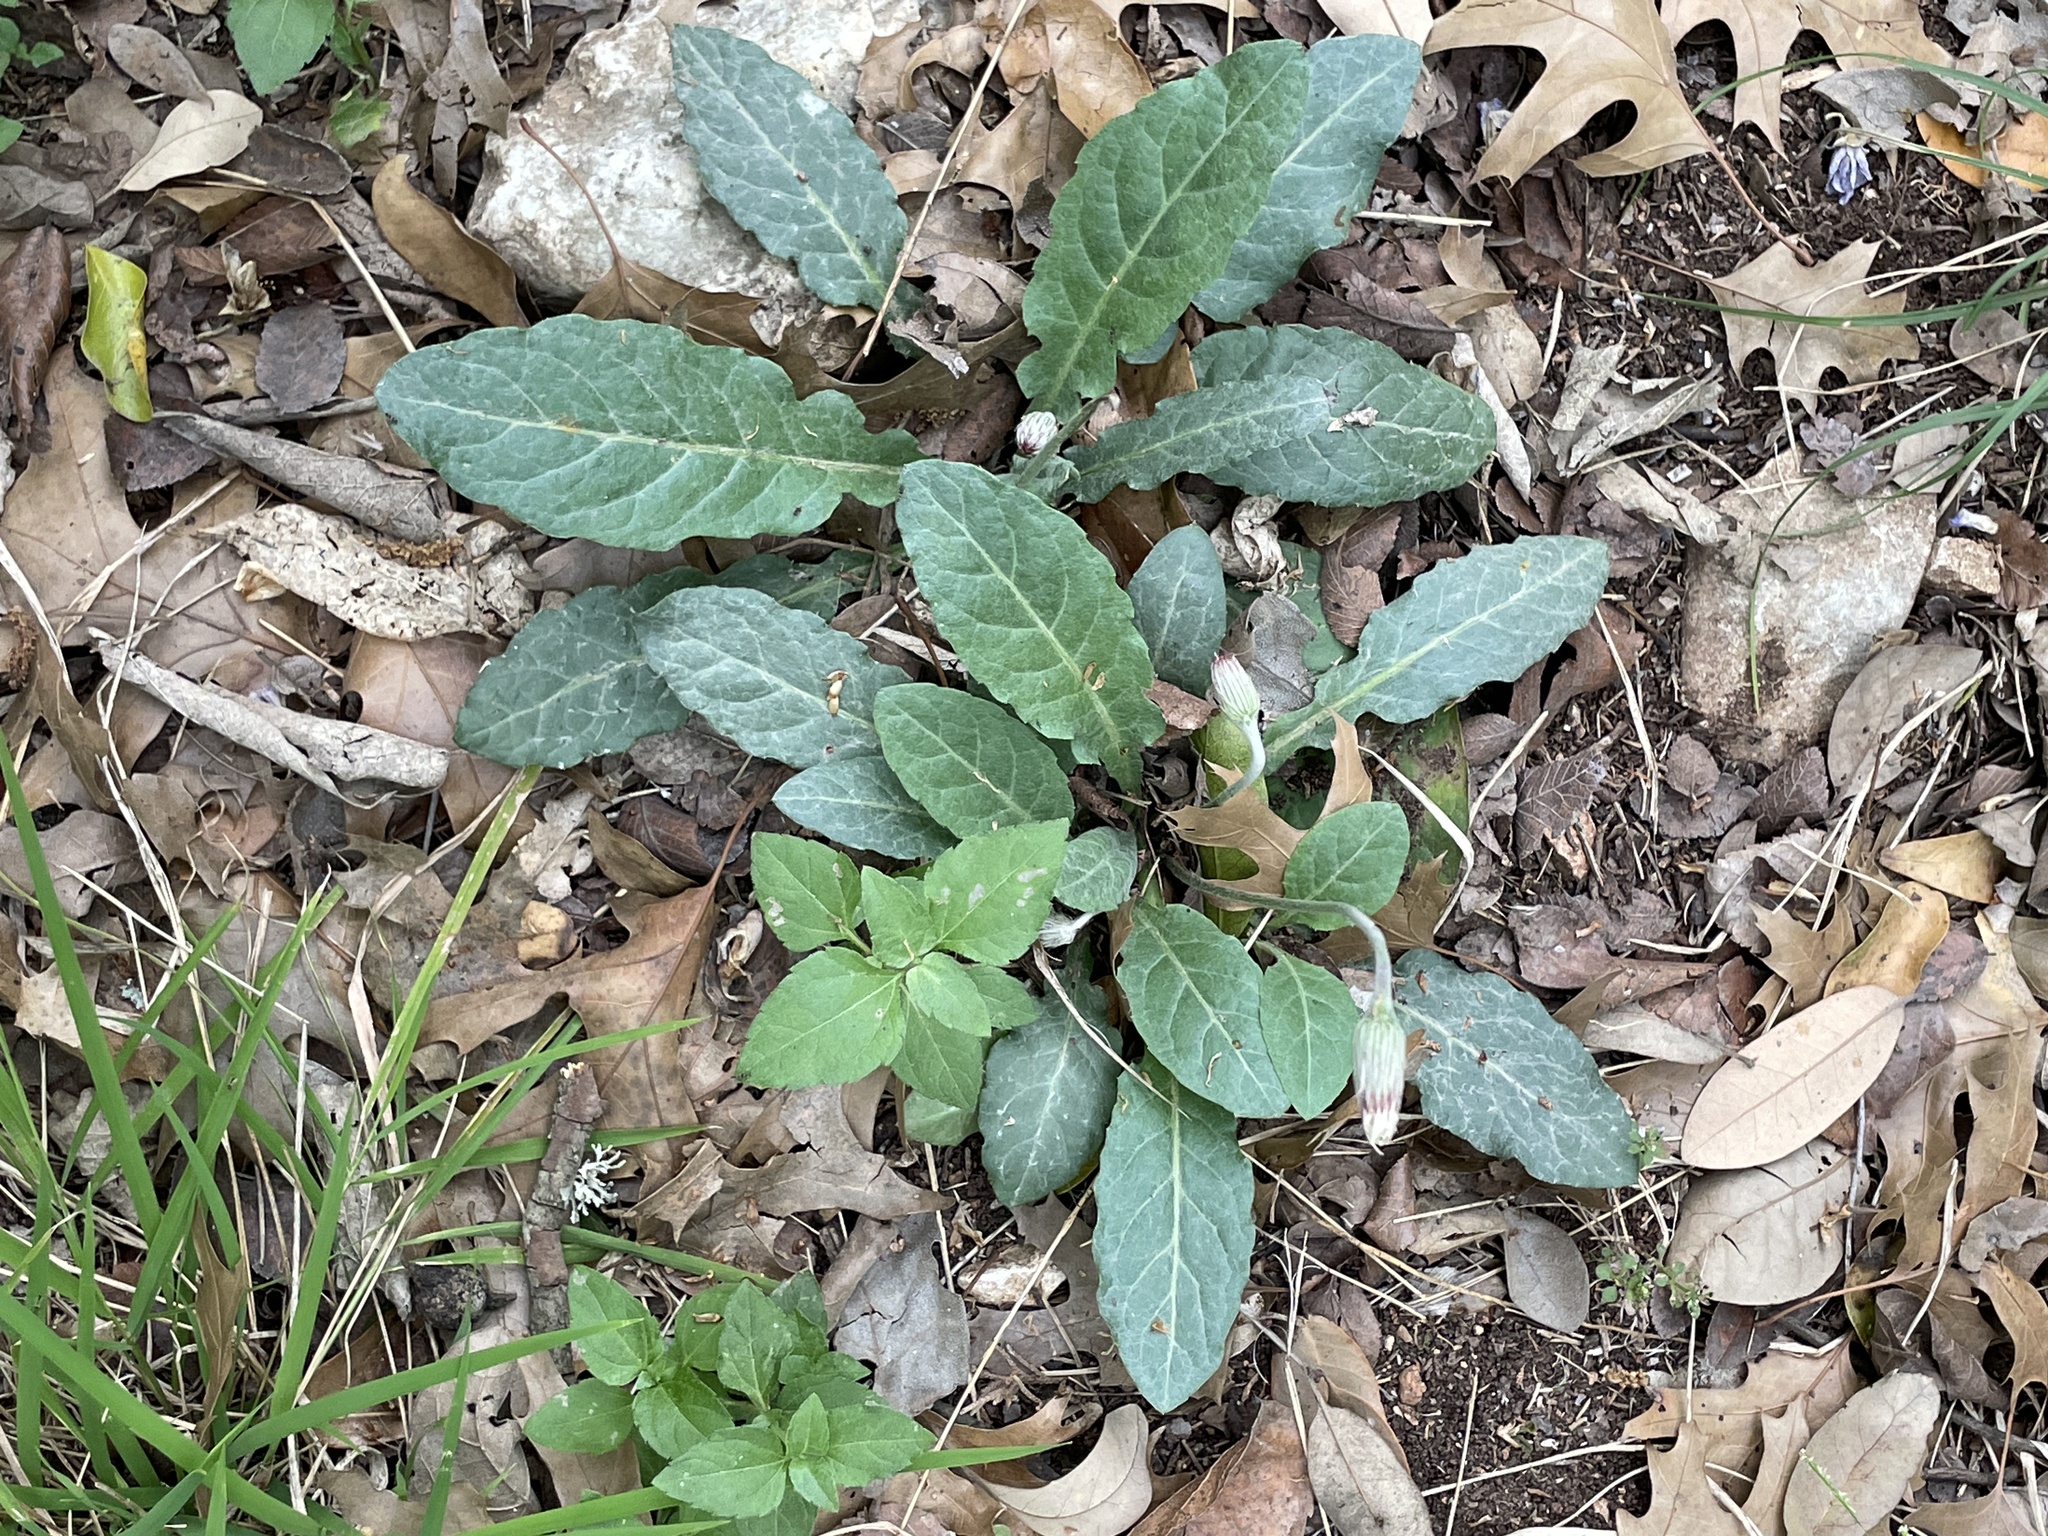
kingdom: Plantae
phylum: Tracheophyta
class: Magnoliopsida
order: Asterales
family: Asteraceae
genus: Chaptalia
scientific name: Chaptalia texana
